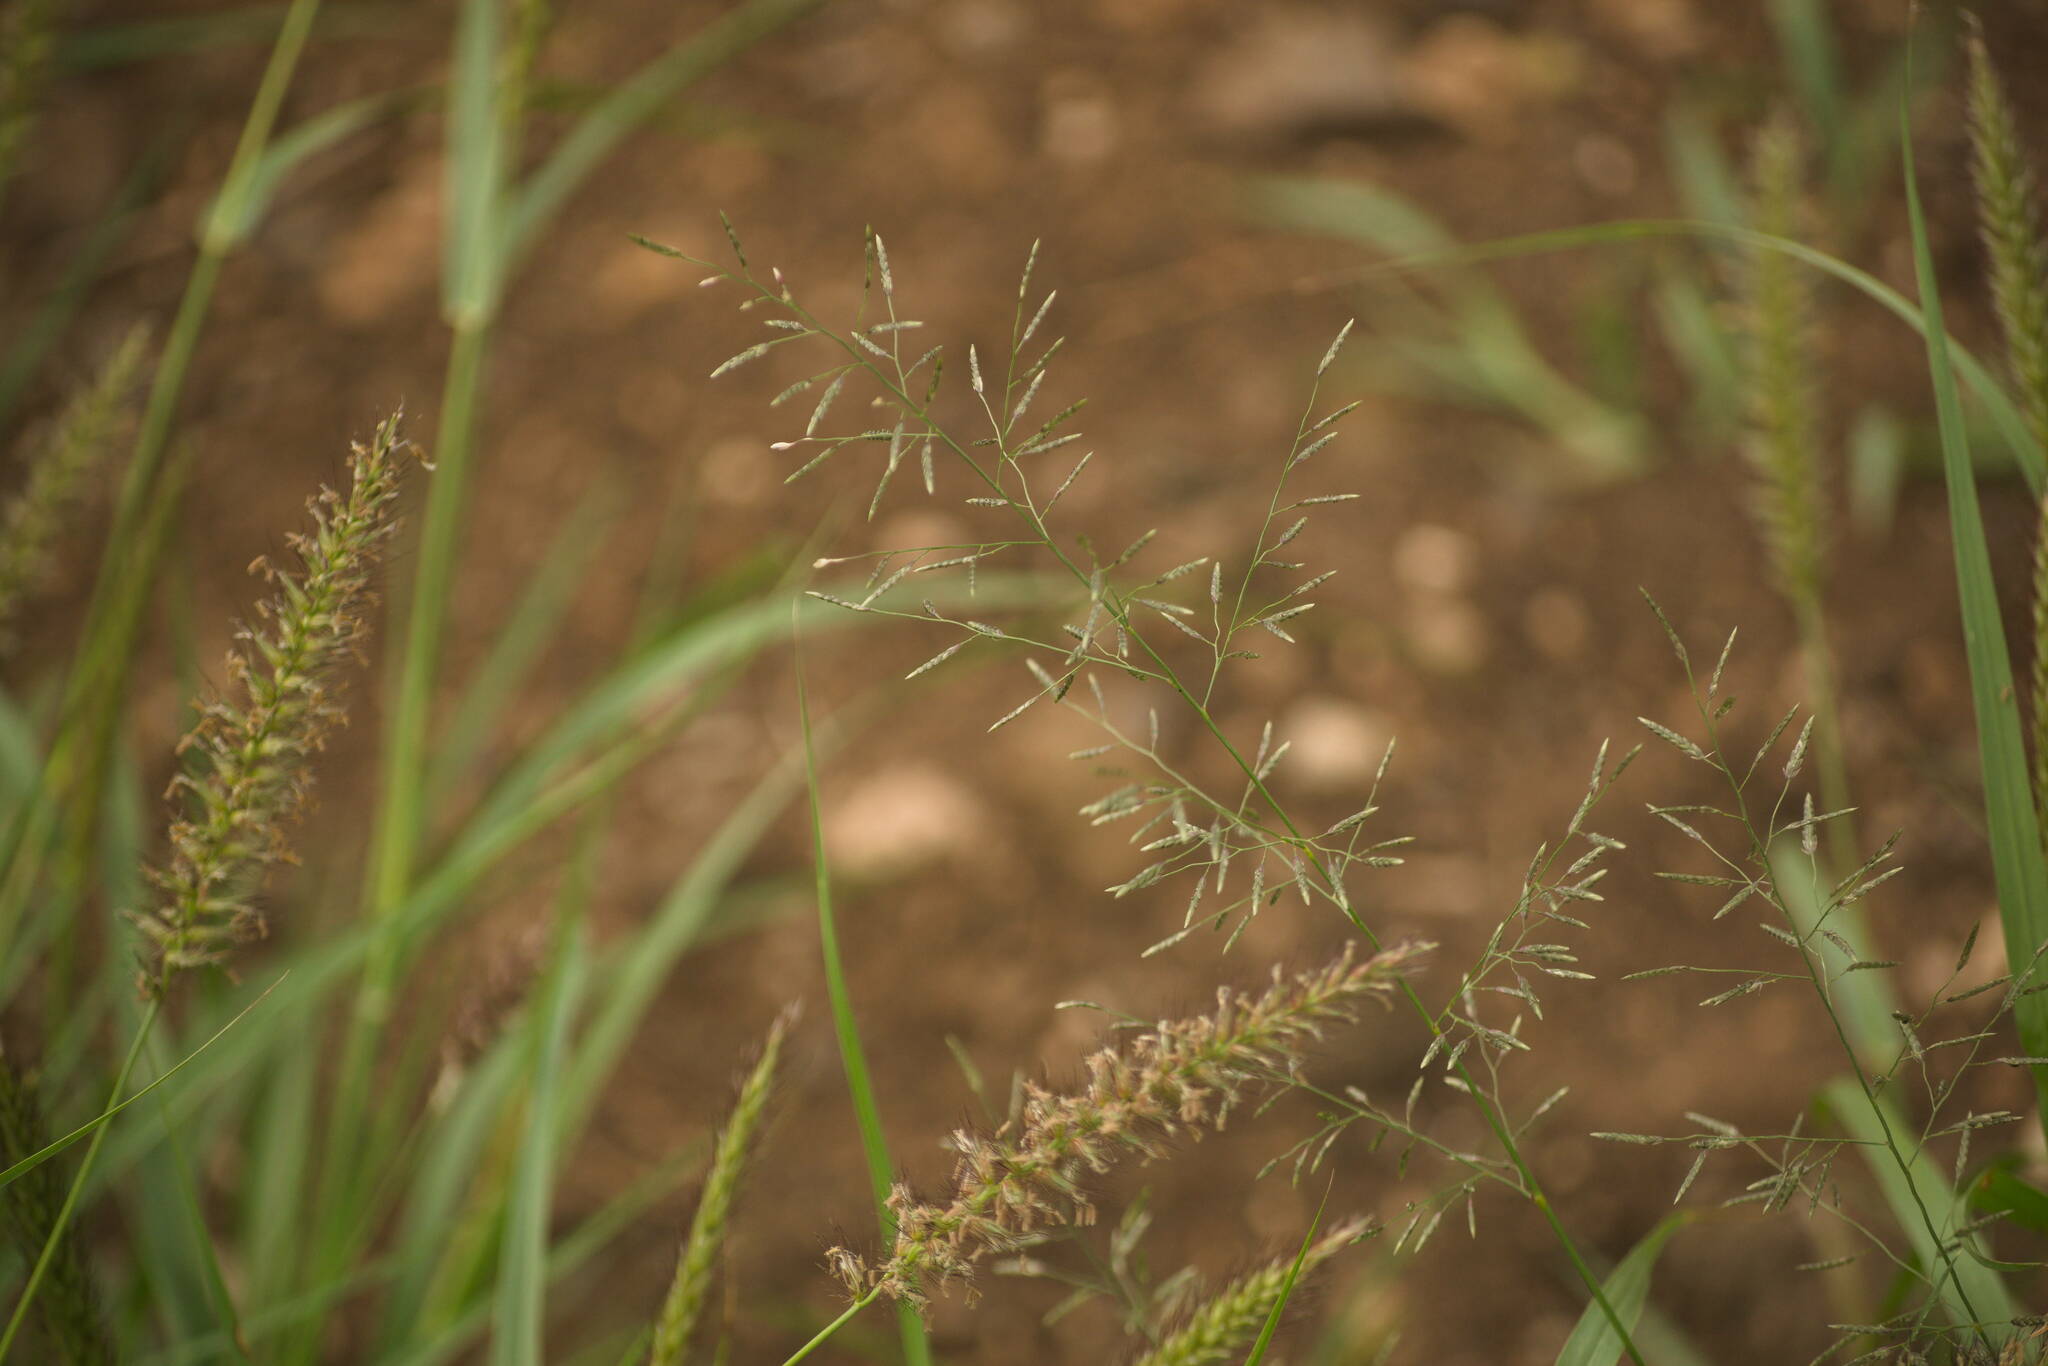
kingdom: Plantae
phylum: Tracheophyta
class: Liliopsida
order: Poales
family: Poaceae
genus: Eragrostis
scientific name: Eragrostis barrelieri
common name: Mediterranean lovegrass
